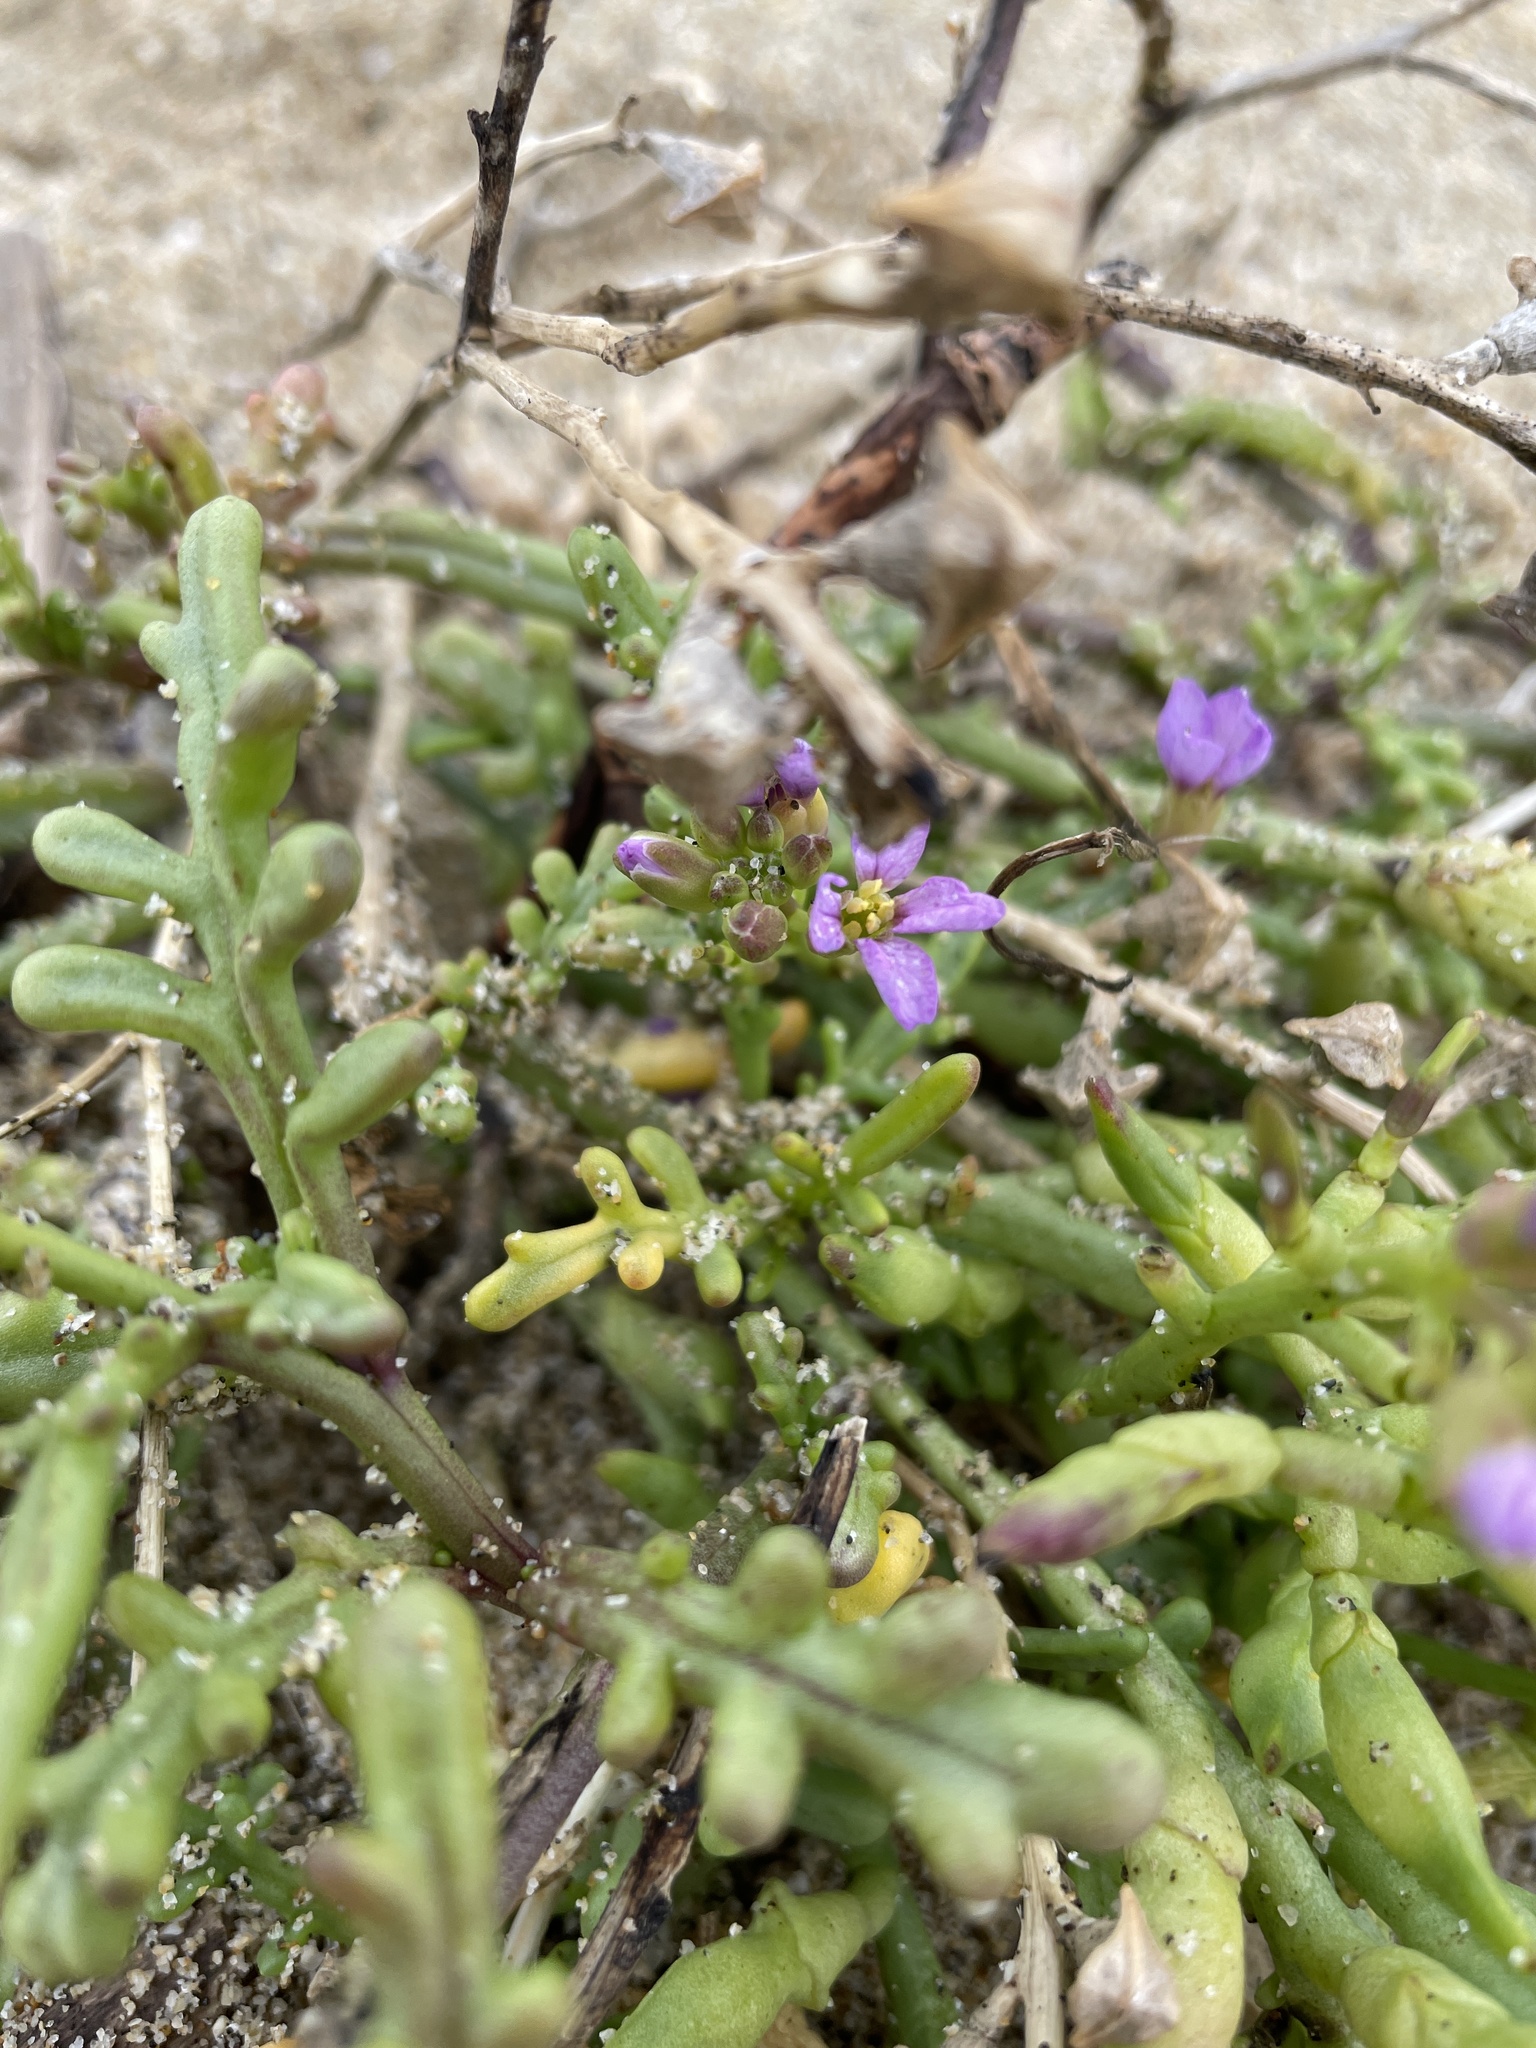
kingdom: Plantae
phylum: Tracheophyta
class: Magnoliopsida
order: Brassicales
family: Brassicaceae
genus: Cakile
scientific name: Cakile maritima
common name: Sea rocket
